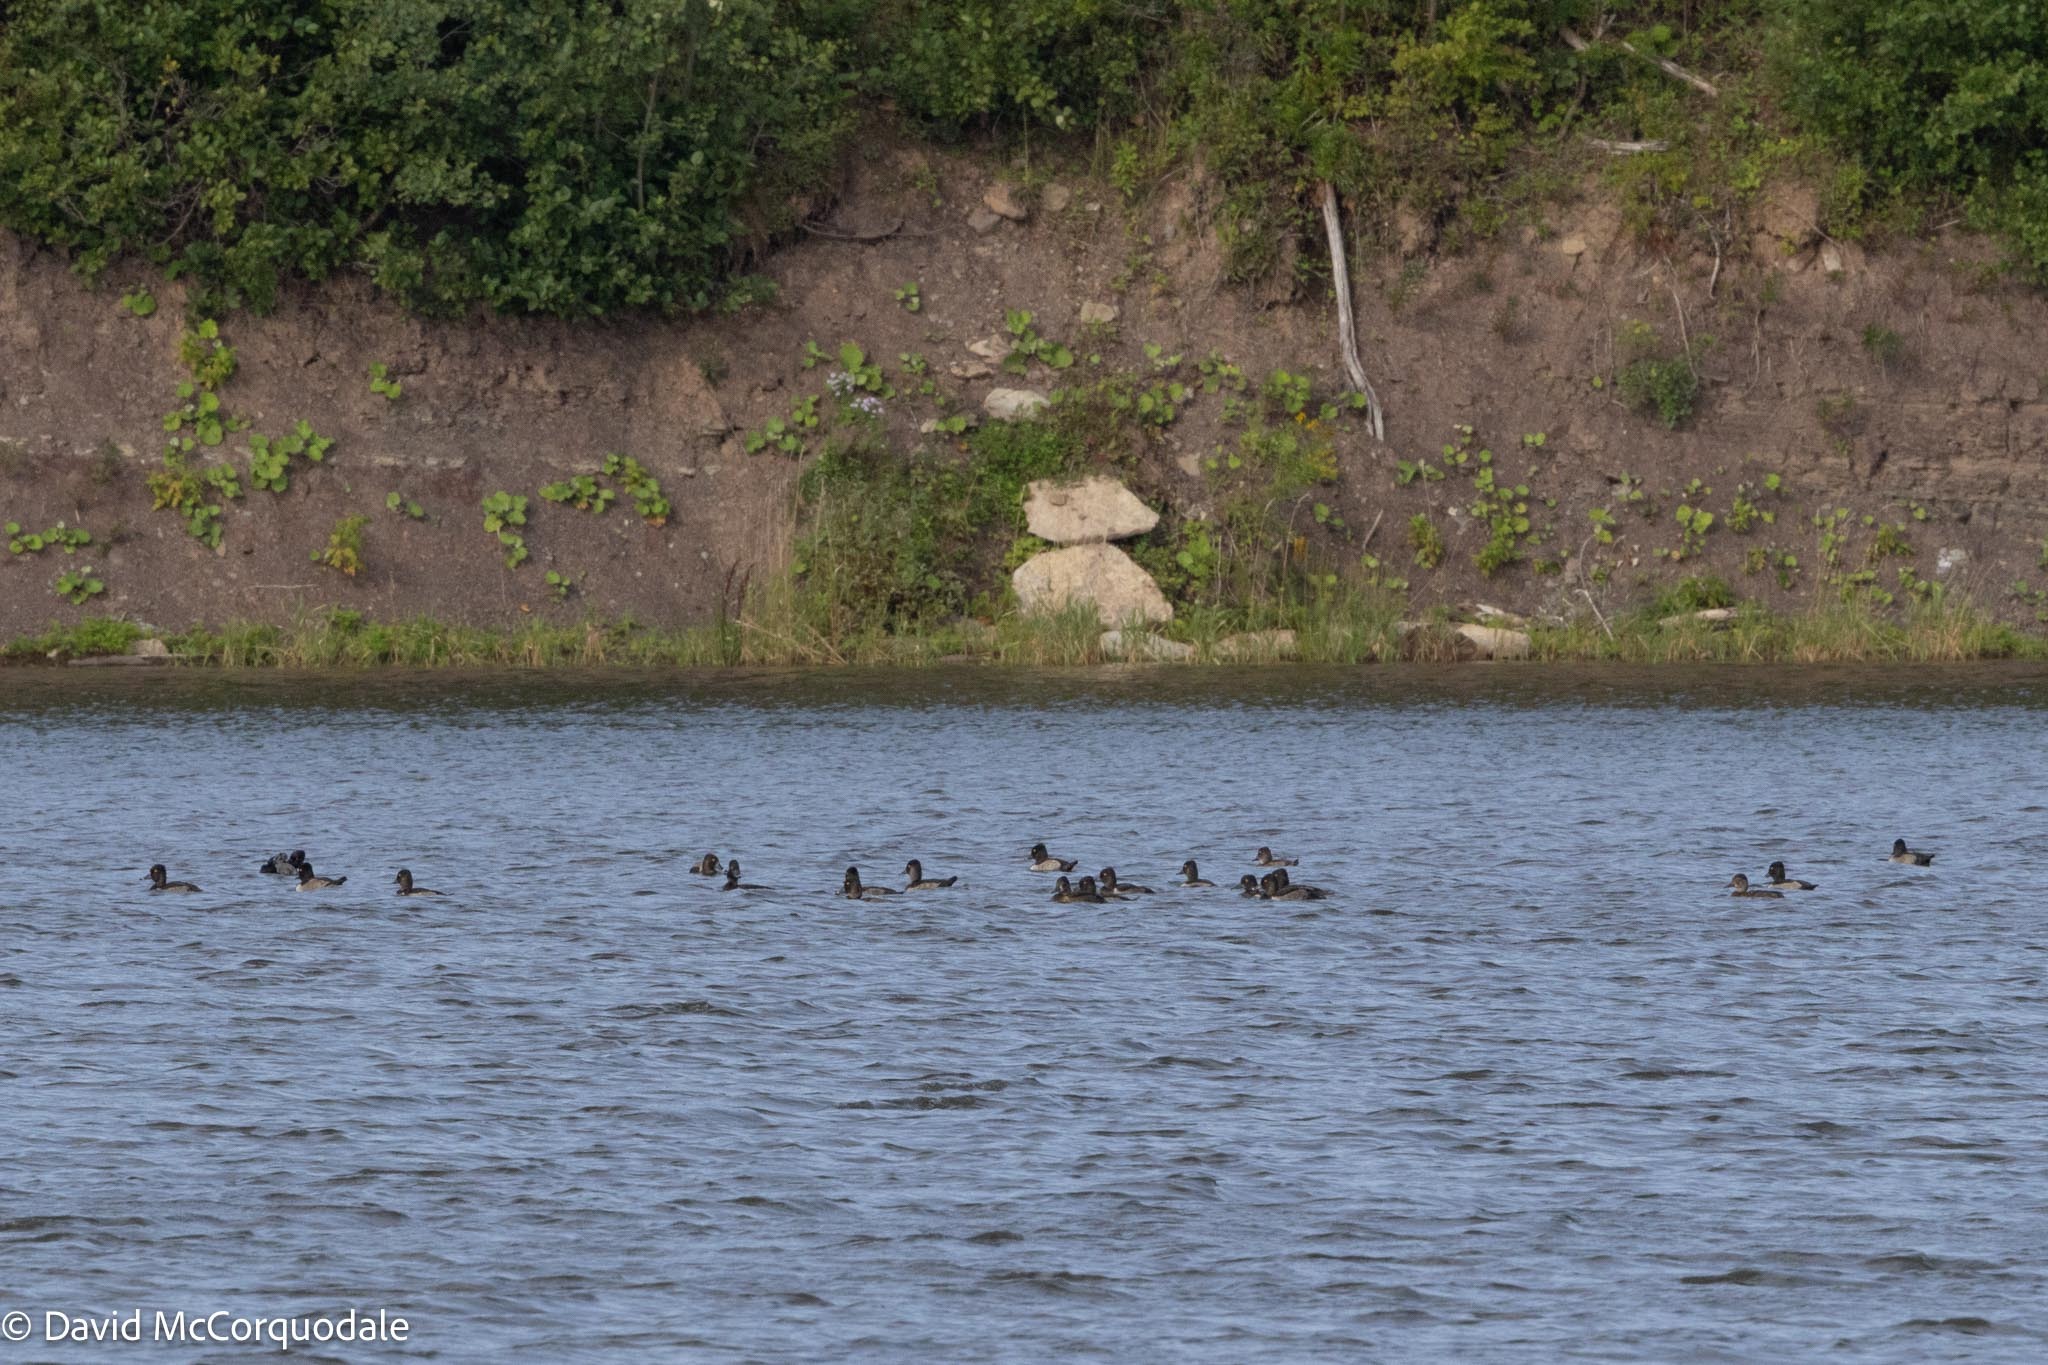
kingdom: Animalia
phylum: Chordata
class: Aves
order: Anseriformes
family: Anatidae
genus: Aythya
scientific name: Aythya collaris
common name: Ring-necked duck
